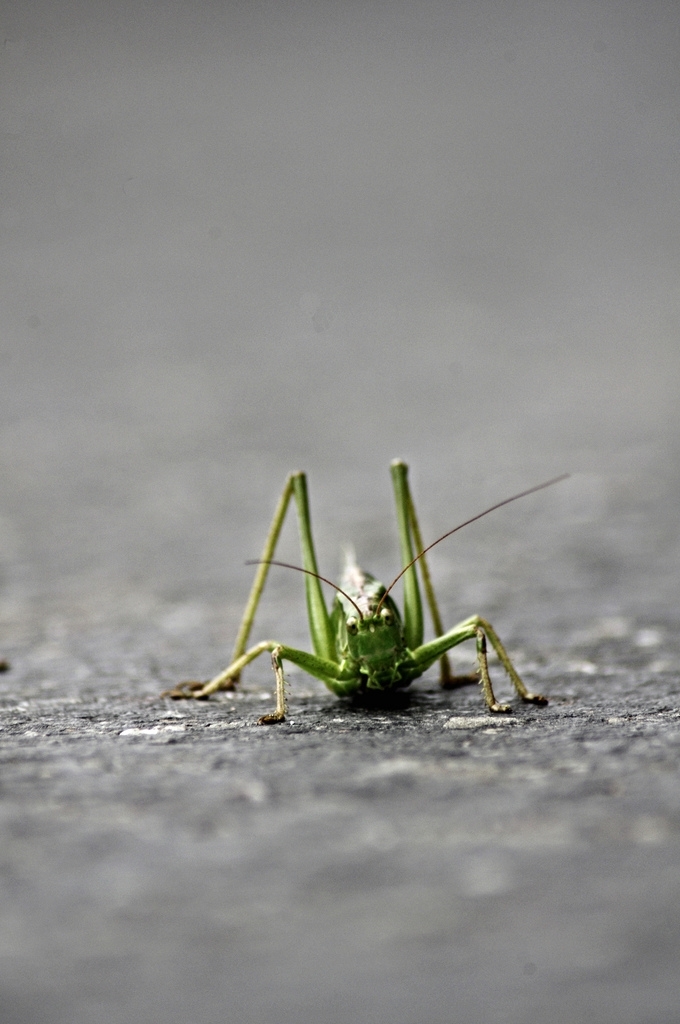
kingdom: Animalia
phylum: Arthropoda
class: Insecta
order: Orthoptera
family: Tettigoniidae
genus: Tettigonia
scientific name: Tettigonia viridissima
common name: Great green bush-cricket
